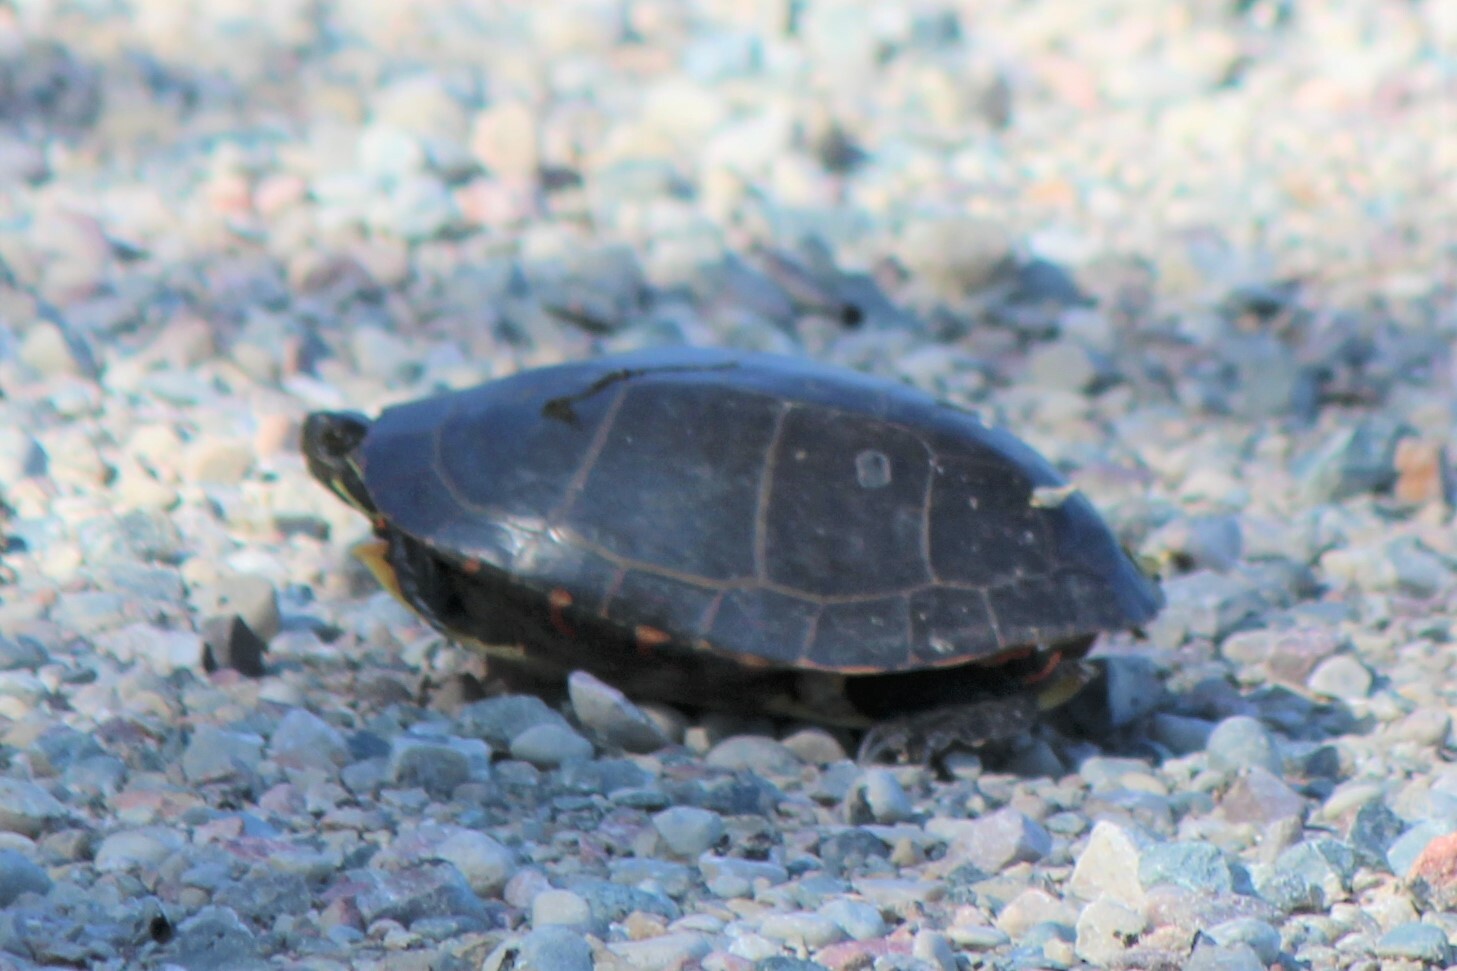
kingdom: Animalia
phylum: Chordata
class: Testudines
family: Emydidae
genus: Chrysemys
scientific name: Chrysemys picta
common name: Painted turtle
